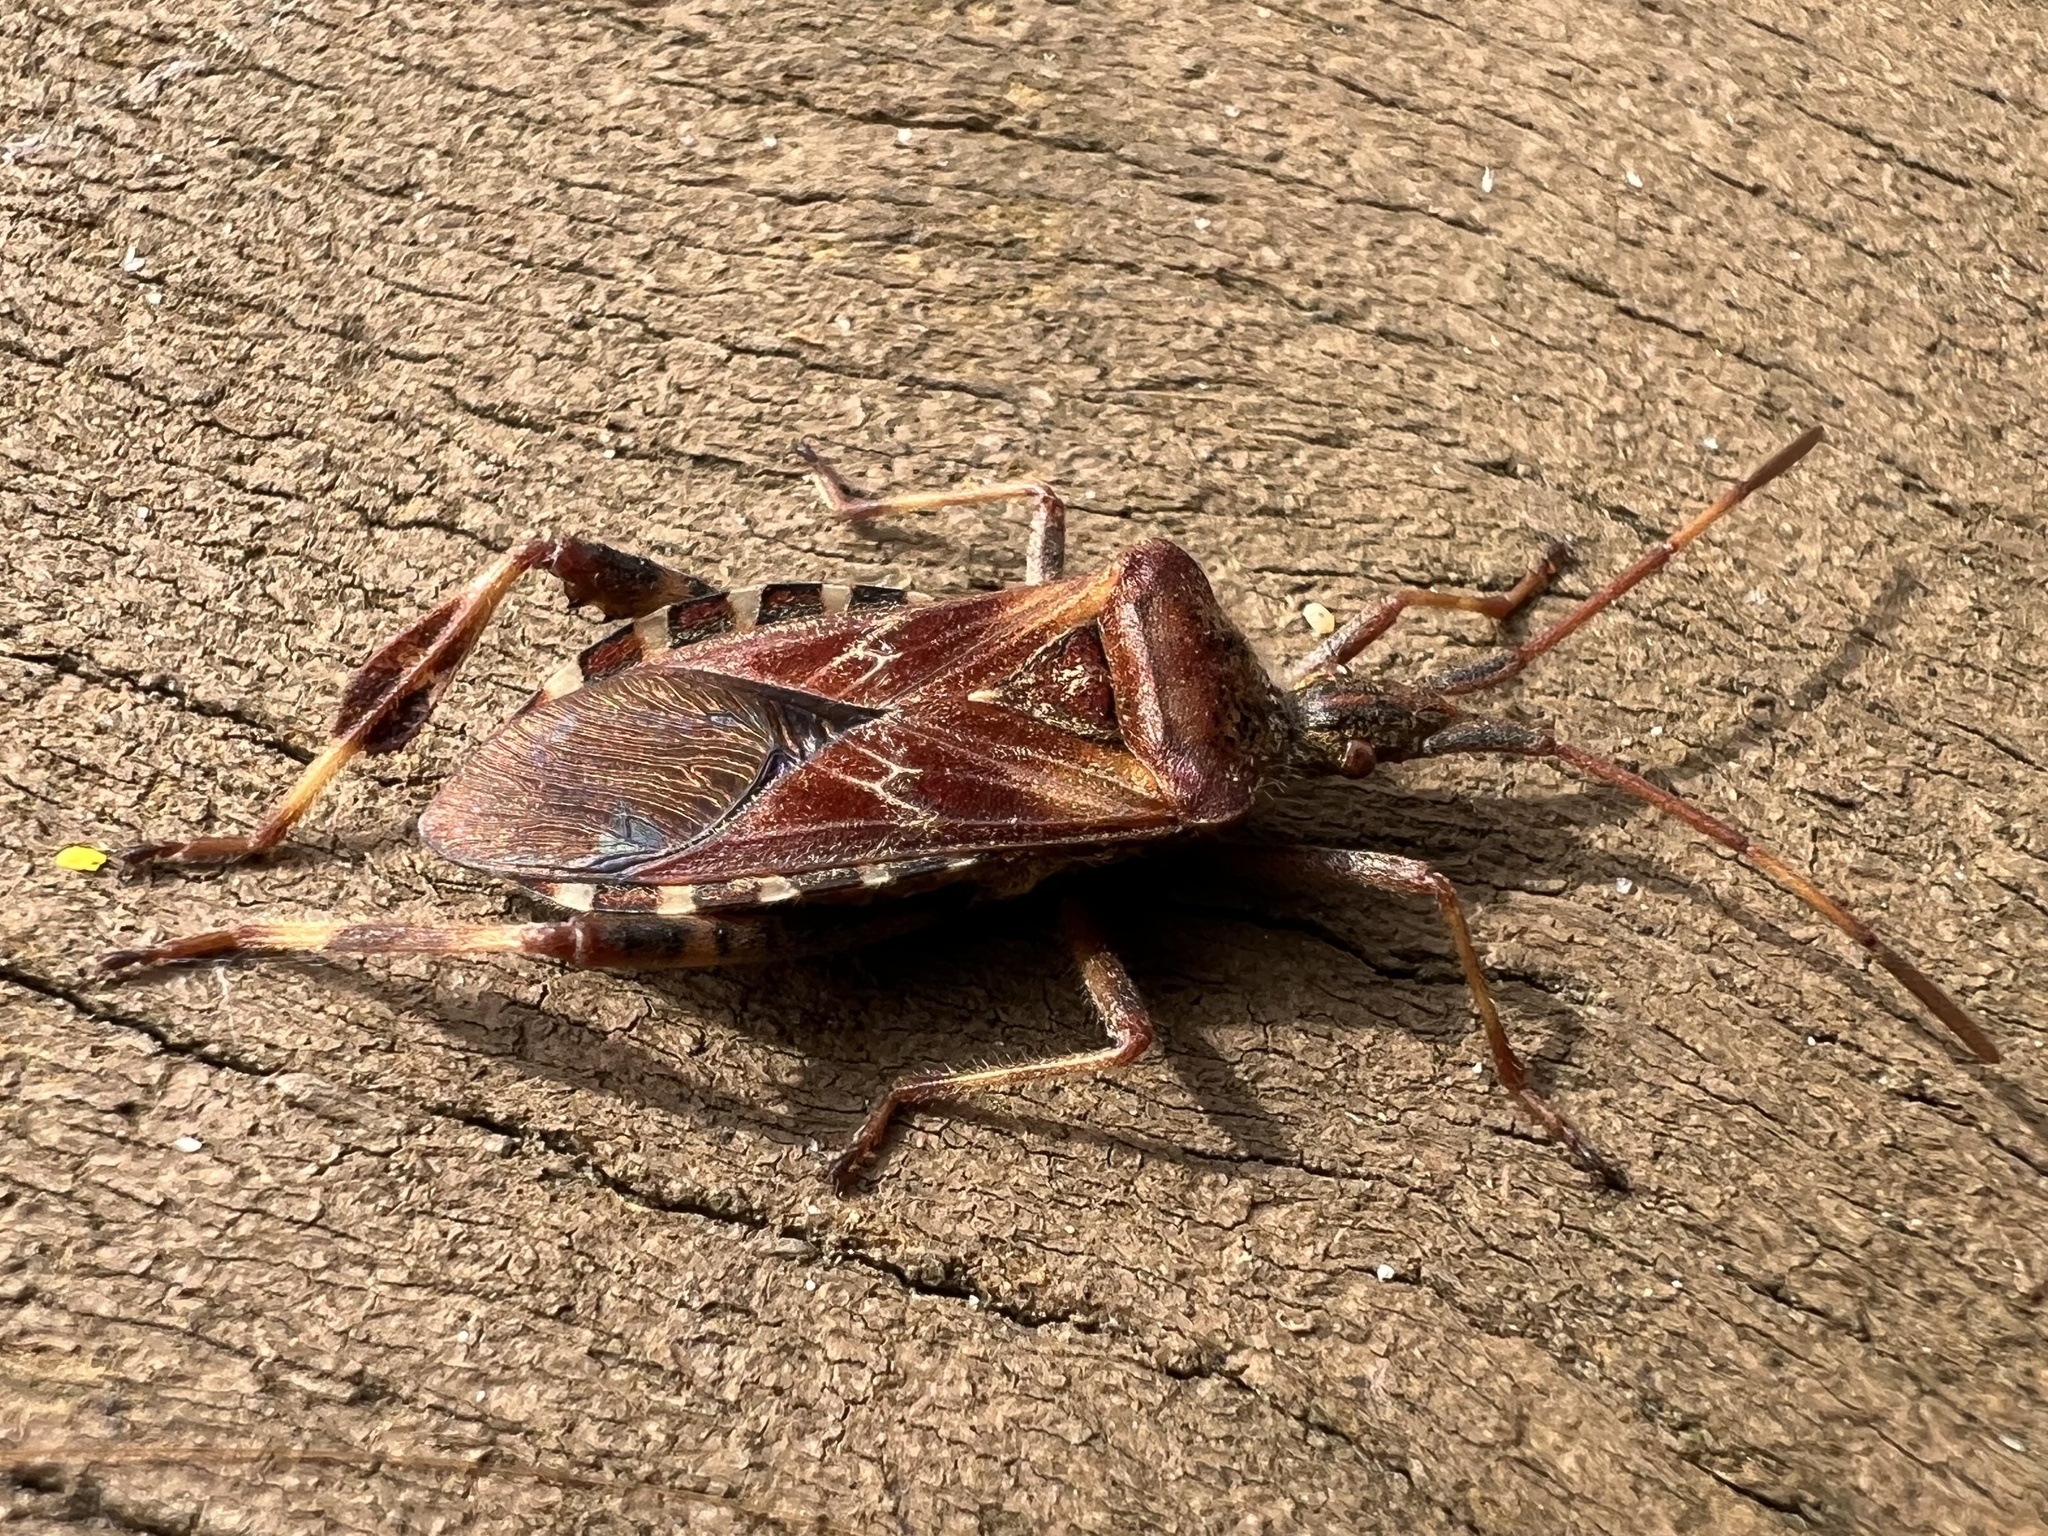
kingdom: Animalia
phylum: Arthropoda
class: Insecta
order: Hemiptera
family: Coreidae
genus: Leptoglossus
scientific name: Leptoglossus occidentalis
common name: Western conifer-seed bug
